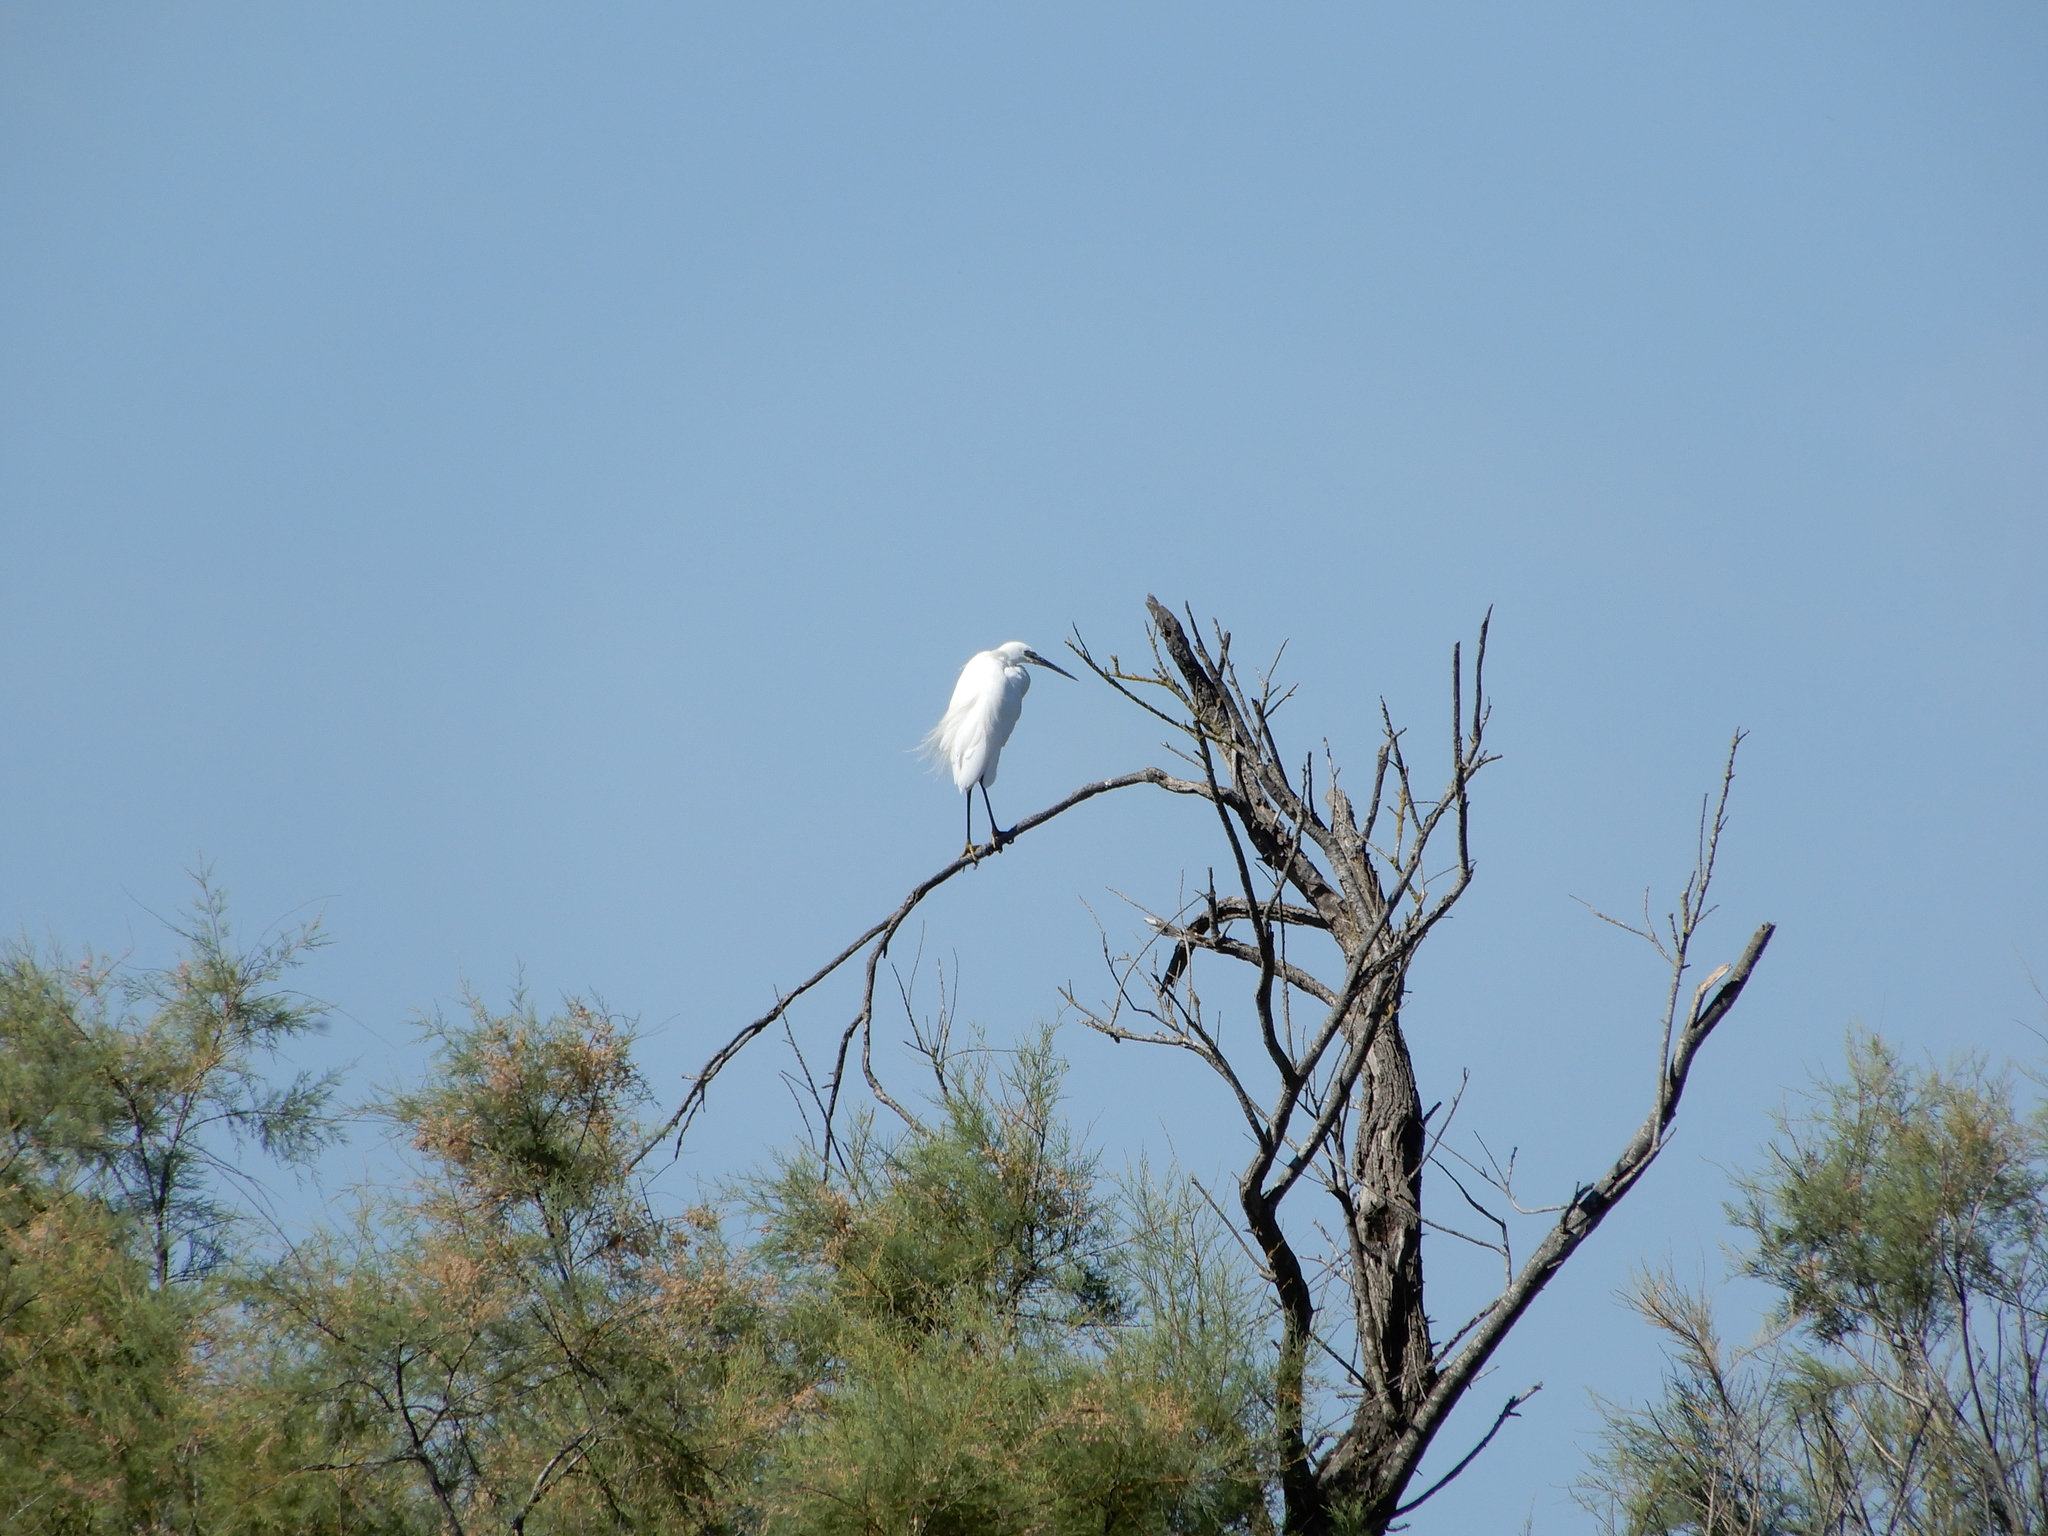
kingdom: Animalia
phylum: Chordata
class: Aves
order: Pelecaniformes
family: Ardeidae
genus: Egretta
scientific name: Egretta garzetta
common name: Little egret
